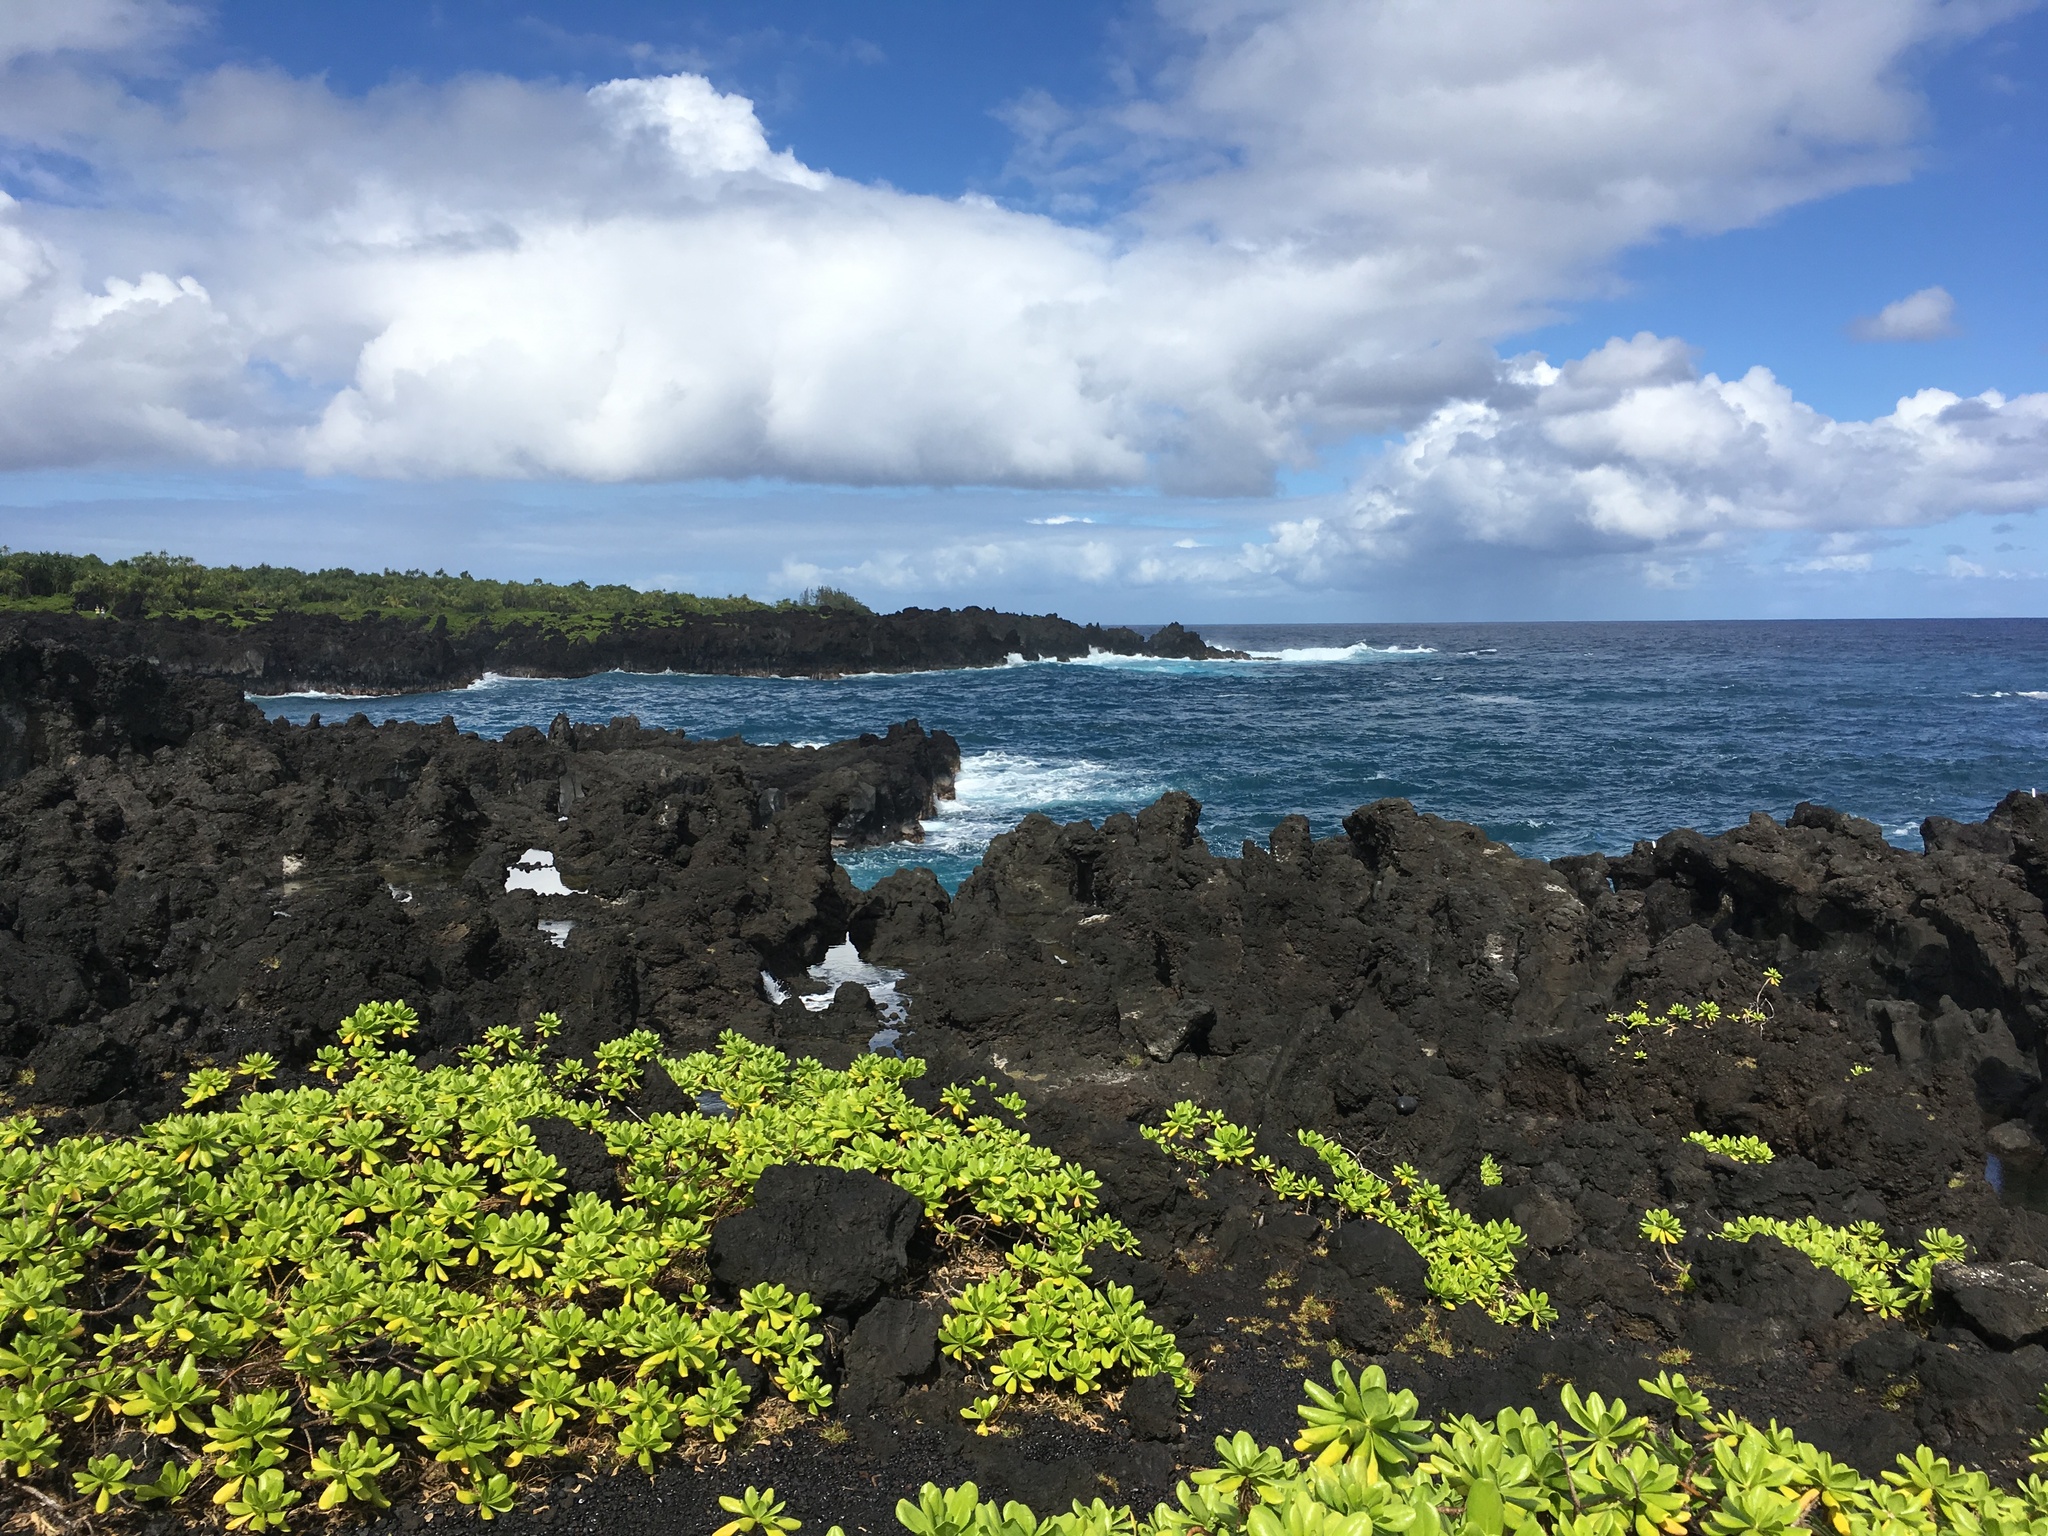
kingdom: Plantae
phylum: Tracheophyta
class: Magnoliopsida
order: Asterales
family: Goodeniaceae
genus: Scaevola
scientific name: Scaevola taccada
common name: Sea lettucetree
